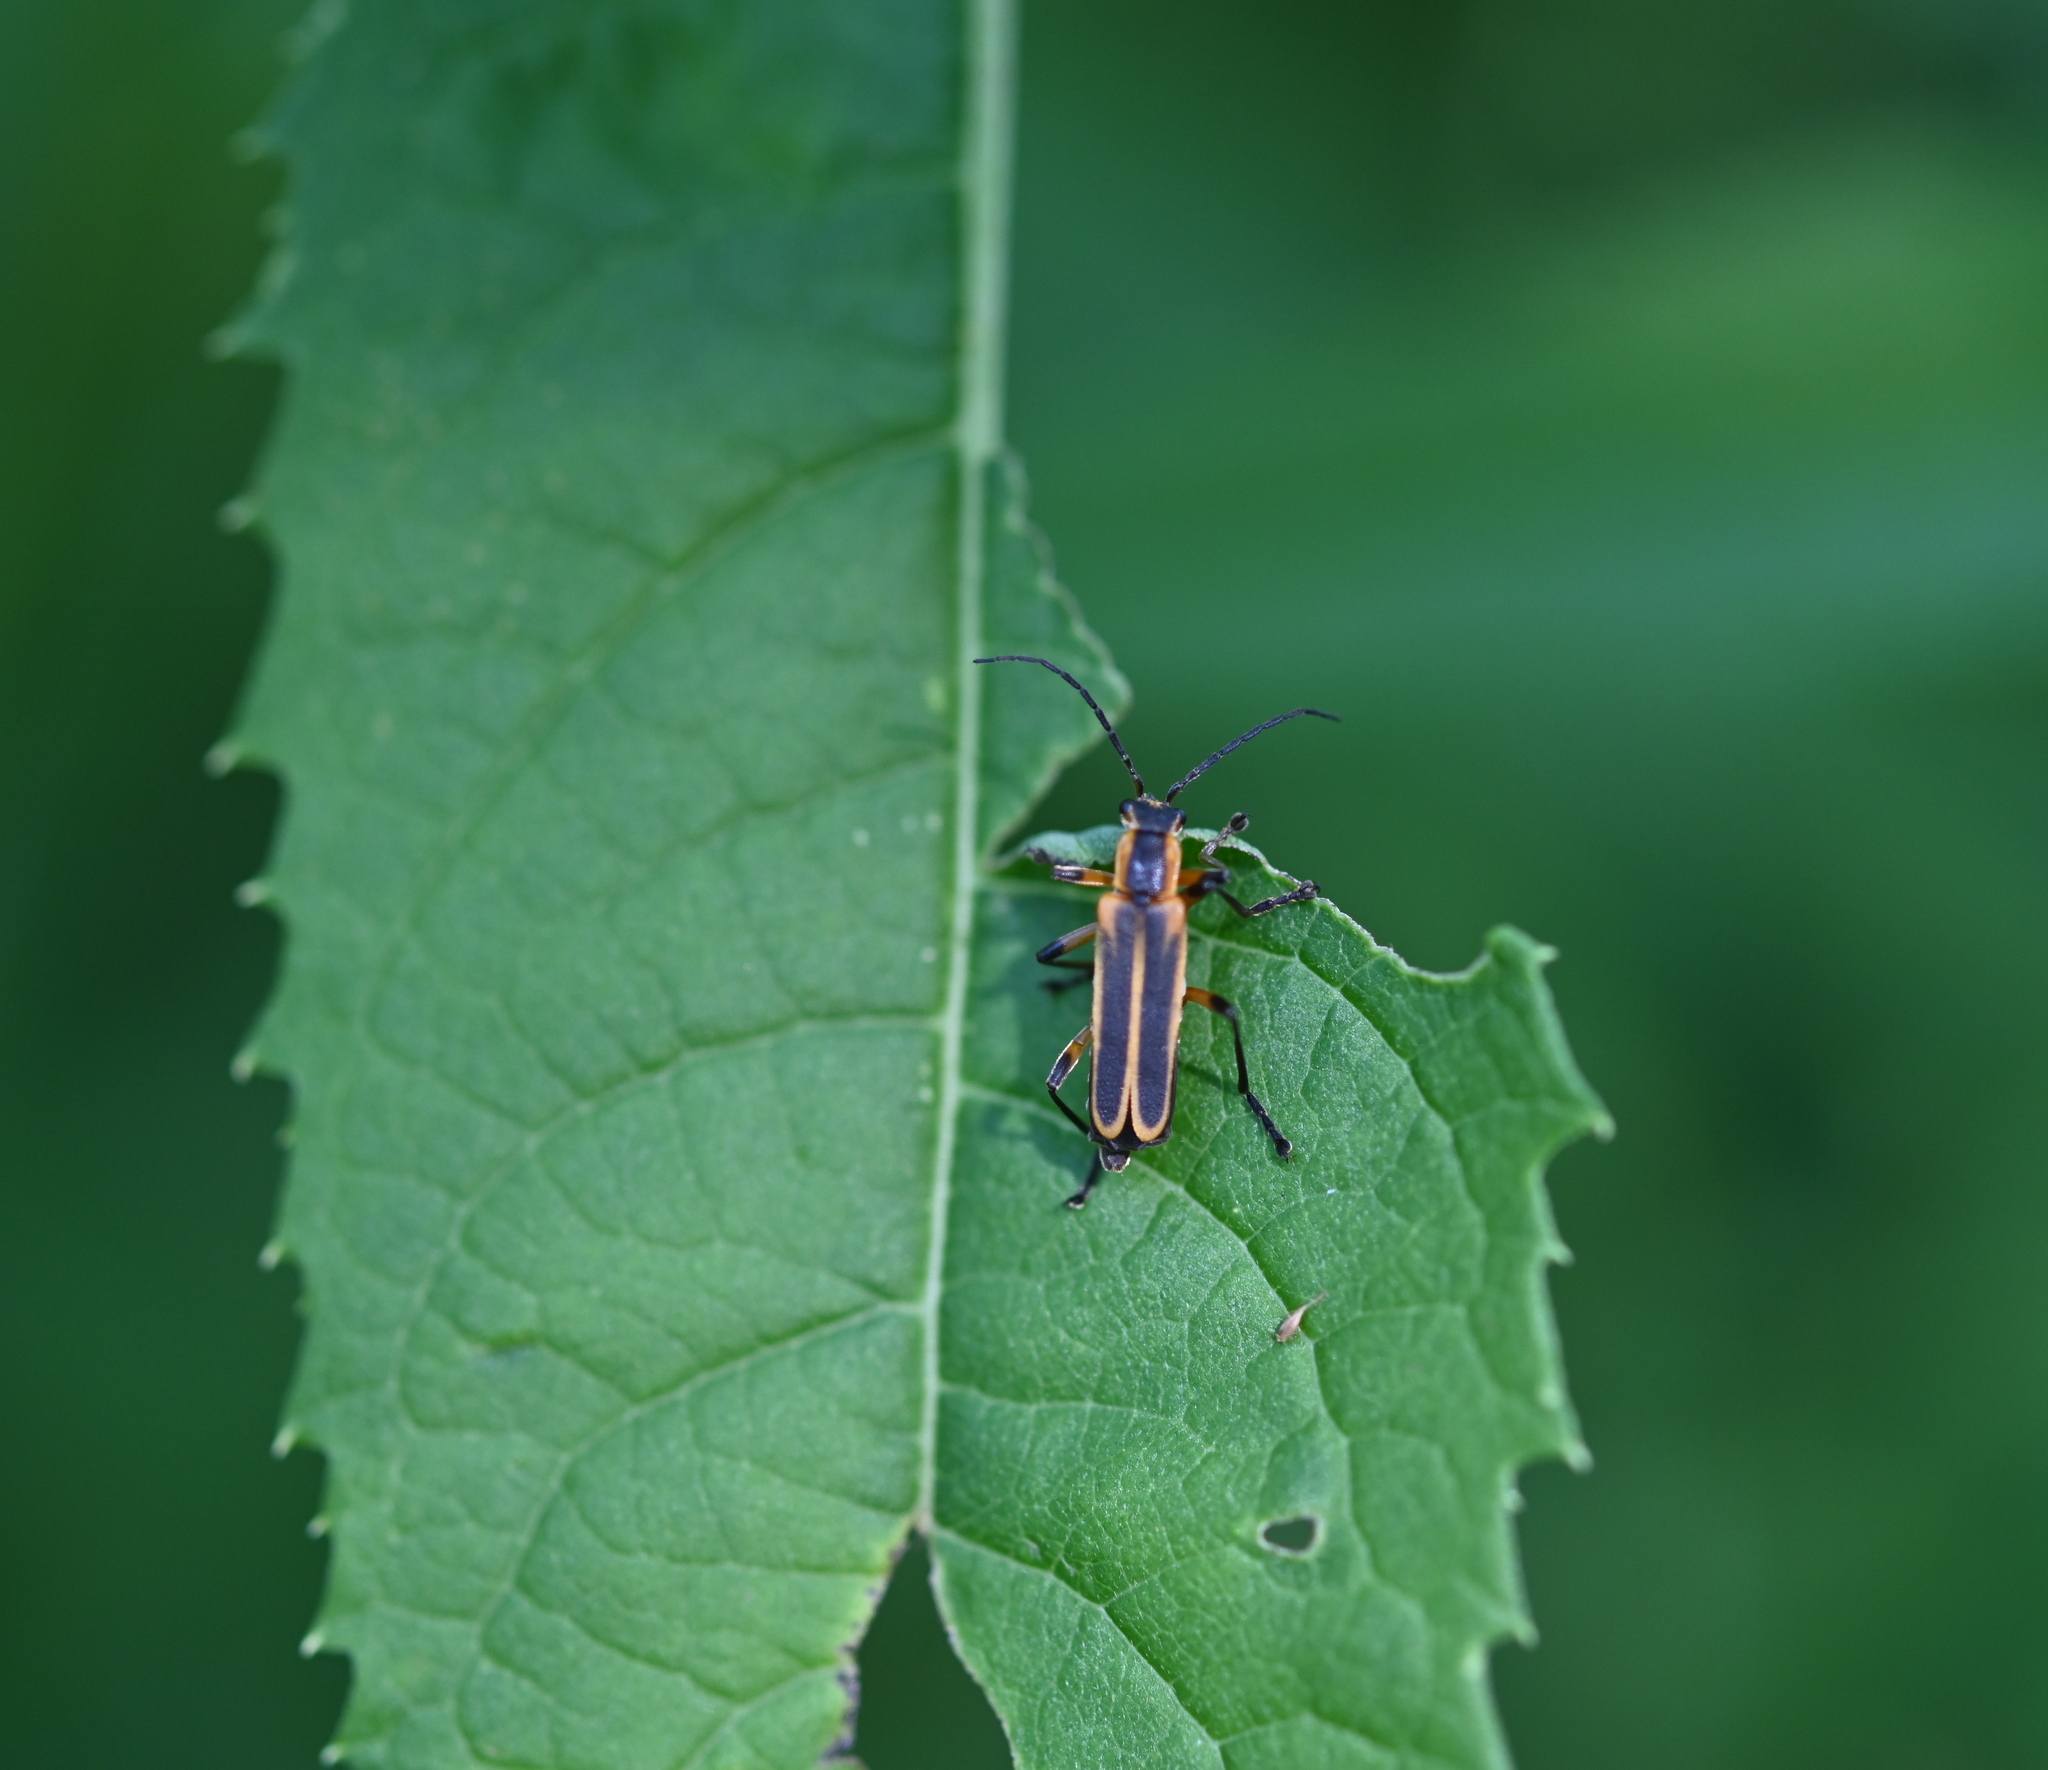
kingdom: Animalia
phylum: Arthropoda
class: Insecta
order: Coleoptera
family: Cantharidae
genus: Chauliognathus
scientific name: Chauliognathus marginatus
